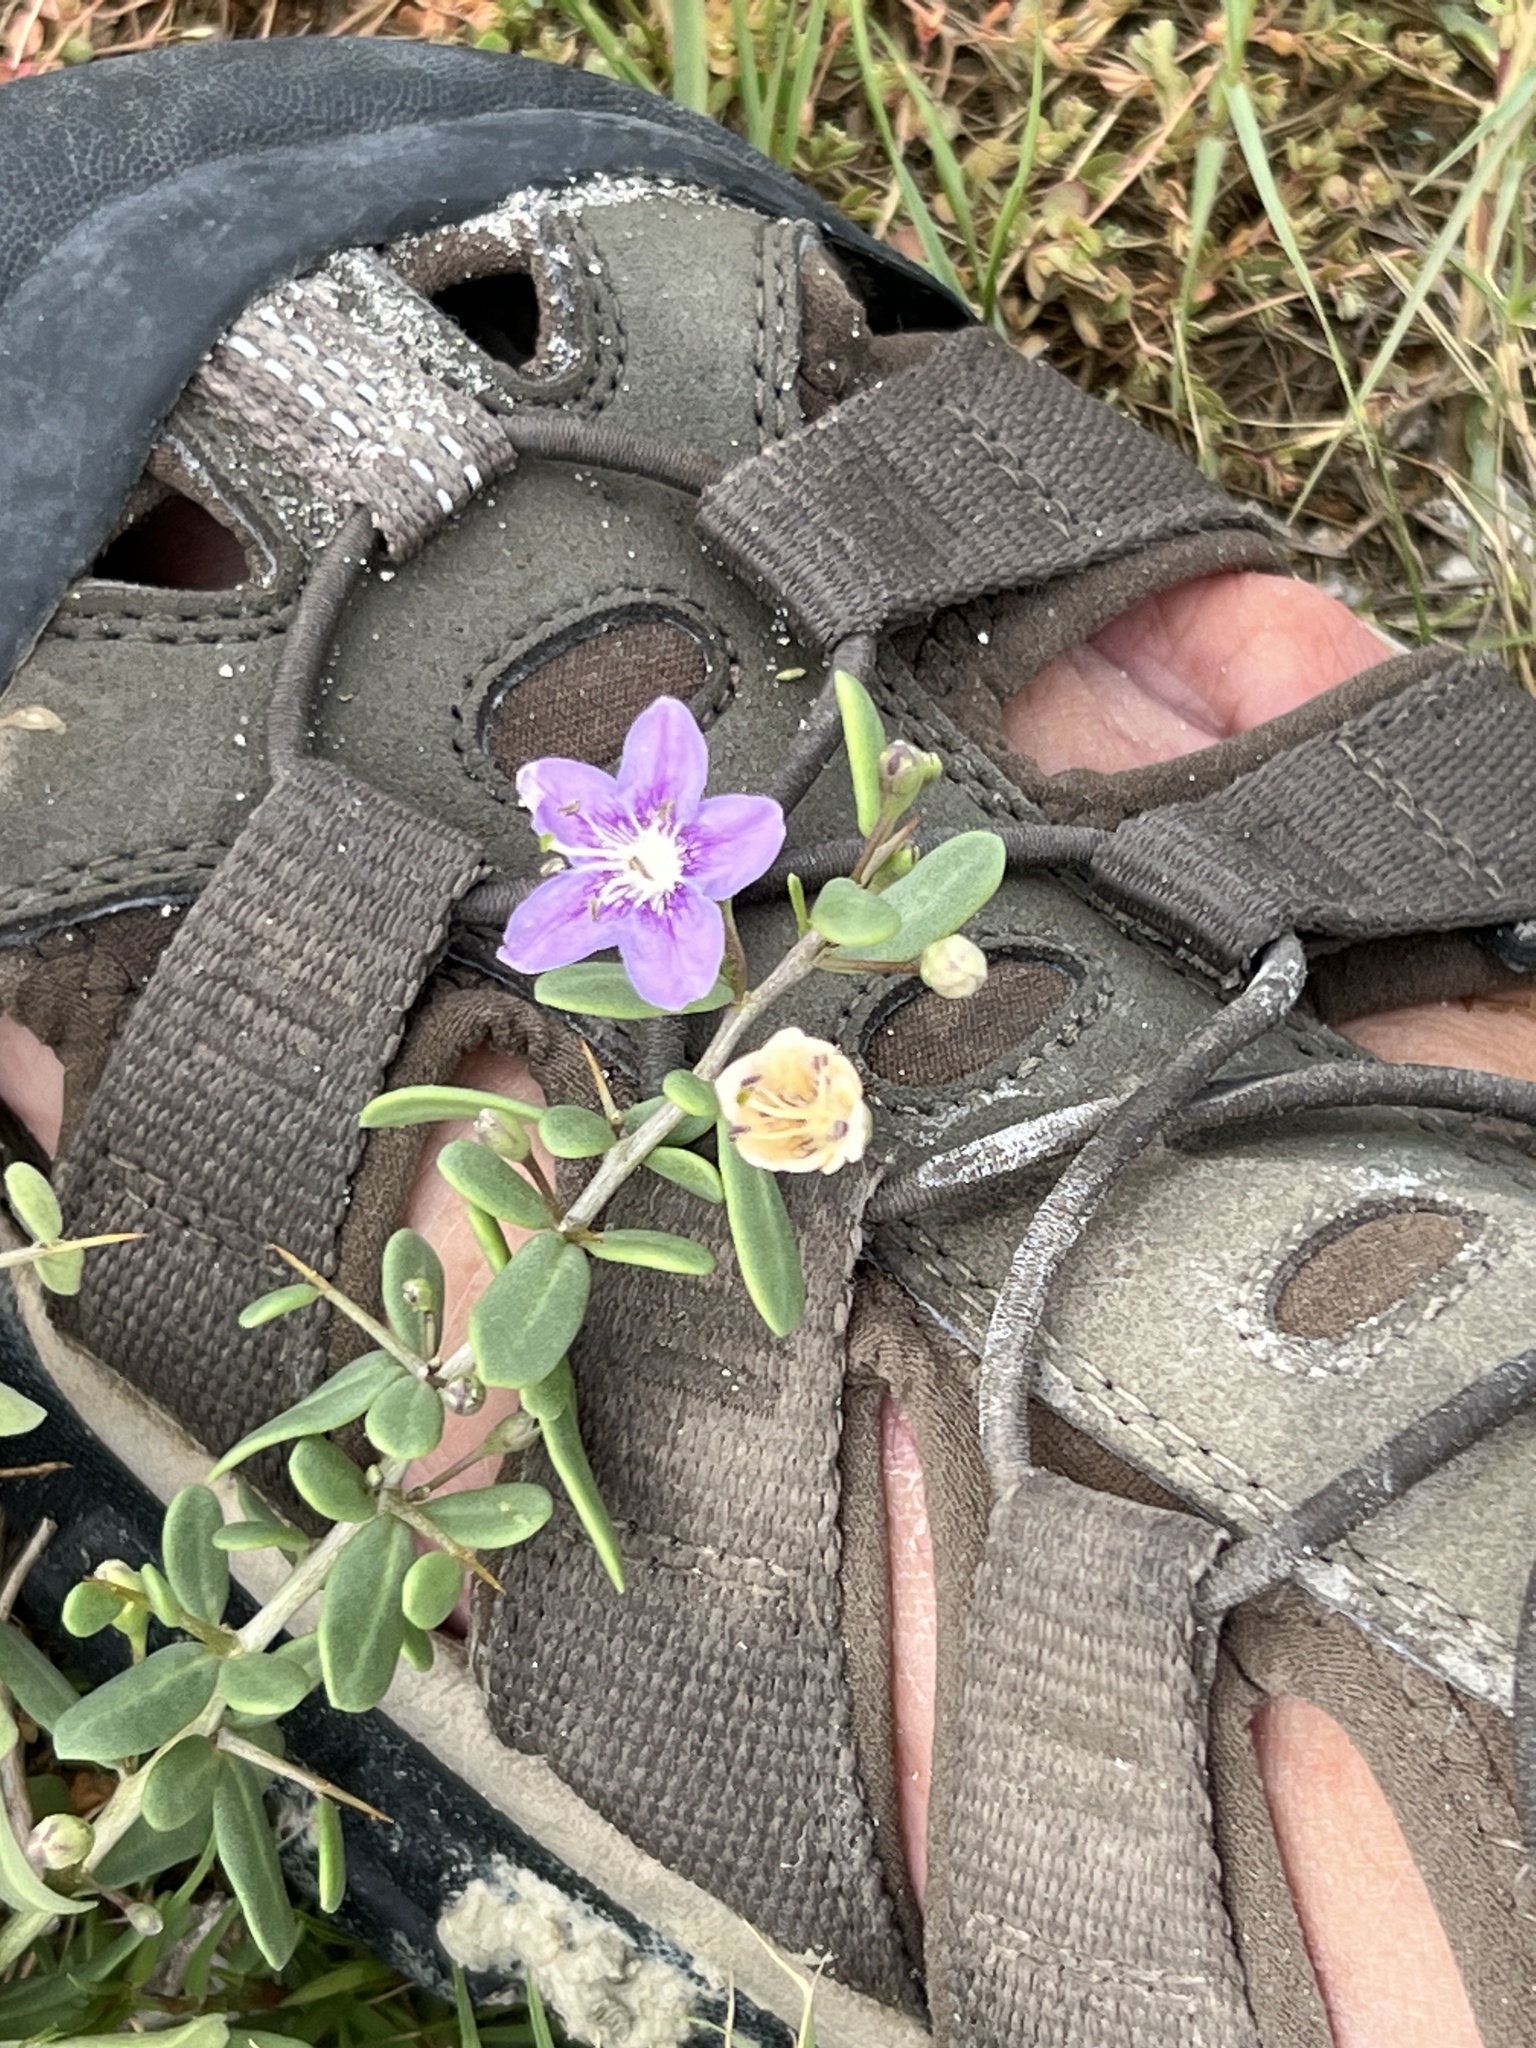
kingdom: Plantae
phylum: Tracheophyta
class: Magnoliopsida
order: Solanales
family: Solanaceae
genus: Lycium
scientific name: Lycium carolinianum
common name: Christmasberry
